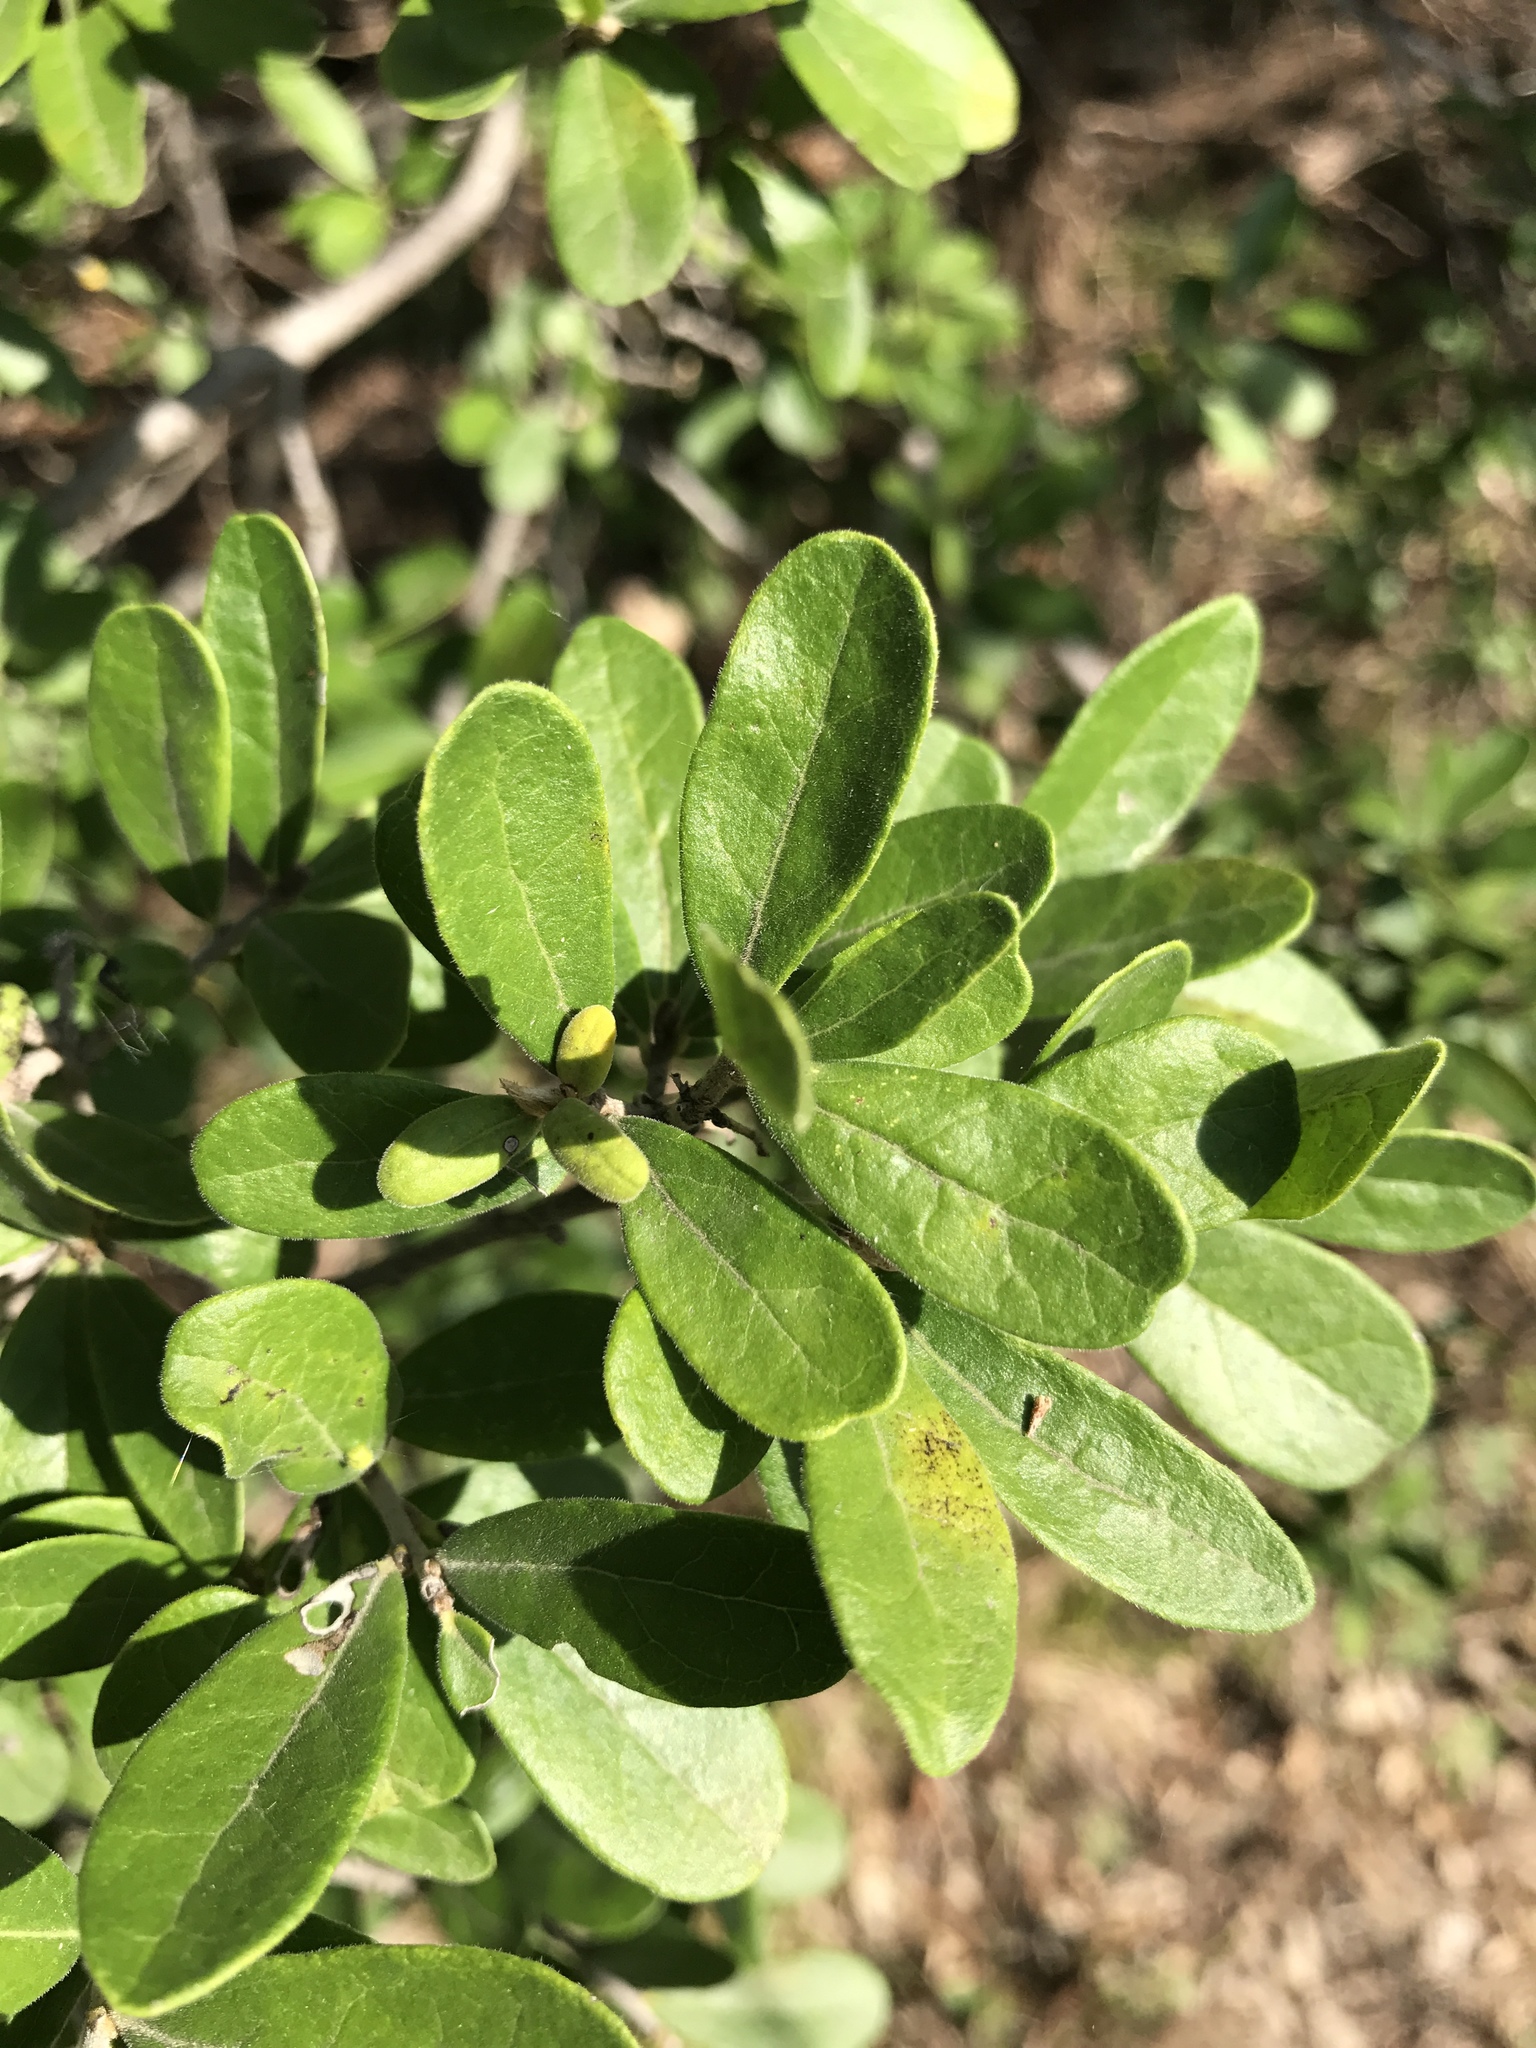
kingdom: Plantae
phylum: Tracheophyta
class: Magnoliopsida
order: Ericales
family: Ebenaceae
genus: Diospyros
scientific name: Diospyros texana
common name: Texas persimmon
